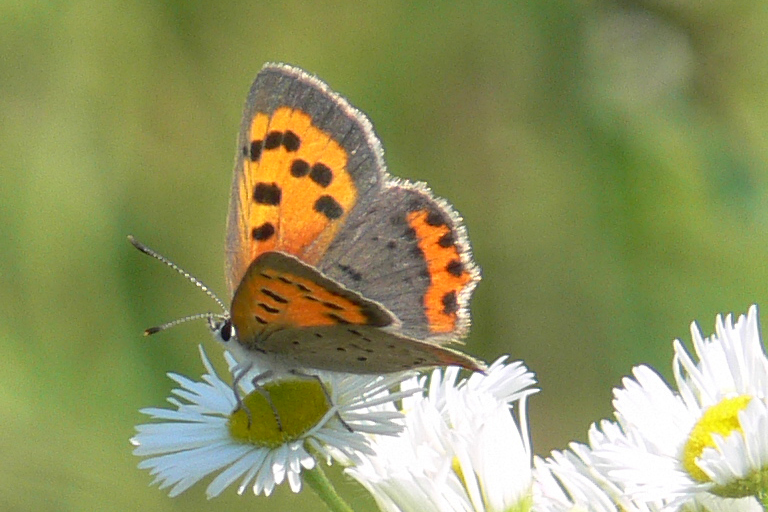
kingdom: Animalia
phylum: Arthropoda
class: Insecta
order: Lepidoptera
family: Lycaenidae
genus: Lycaena
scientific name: Lycaena hypophlaeas
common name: American copper
